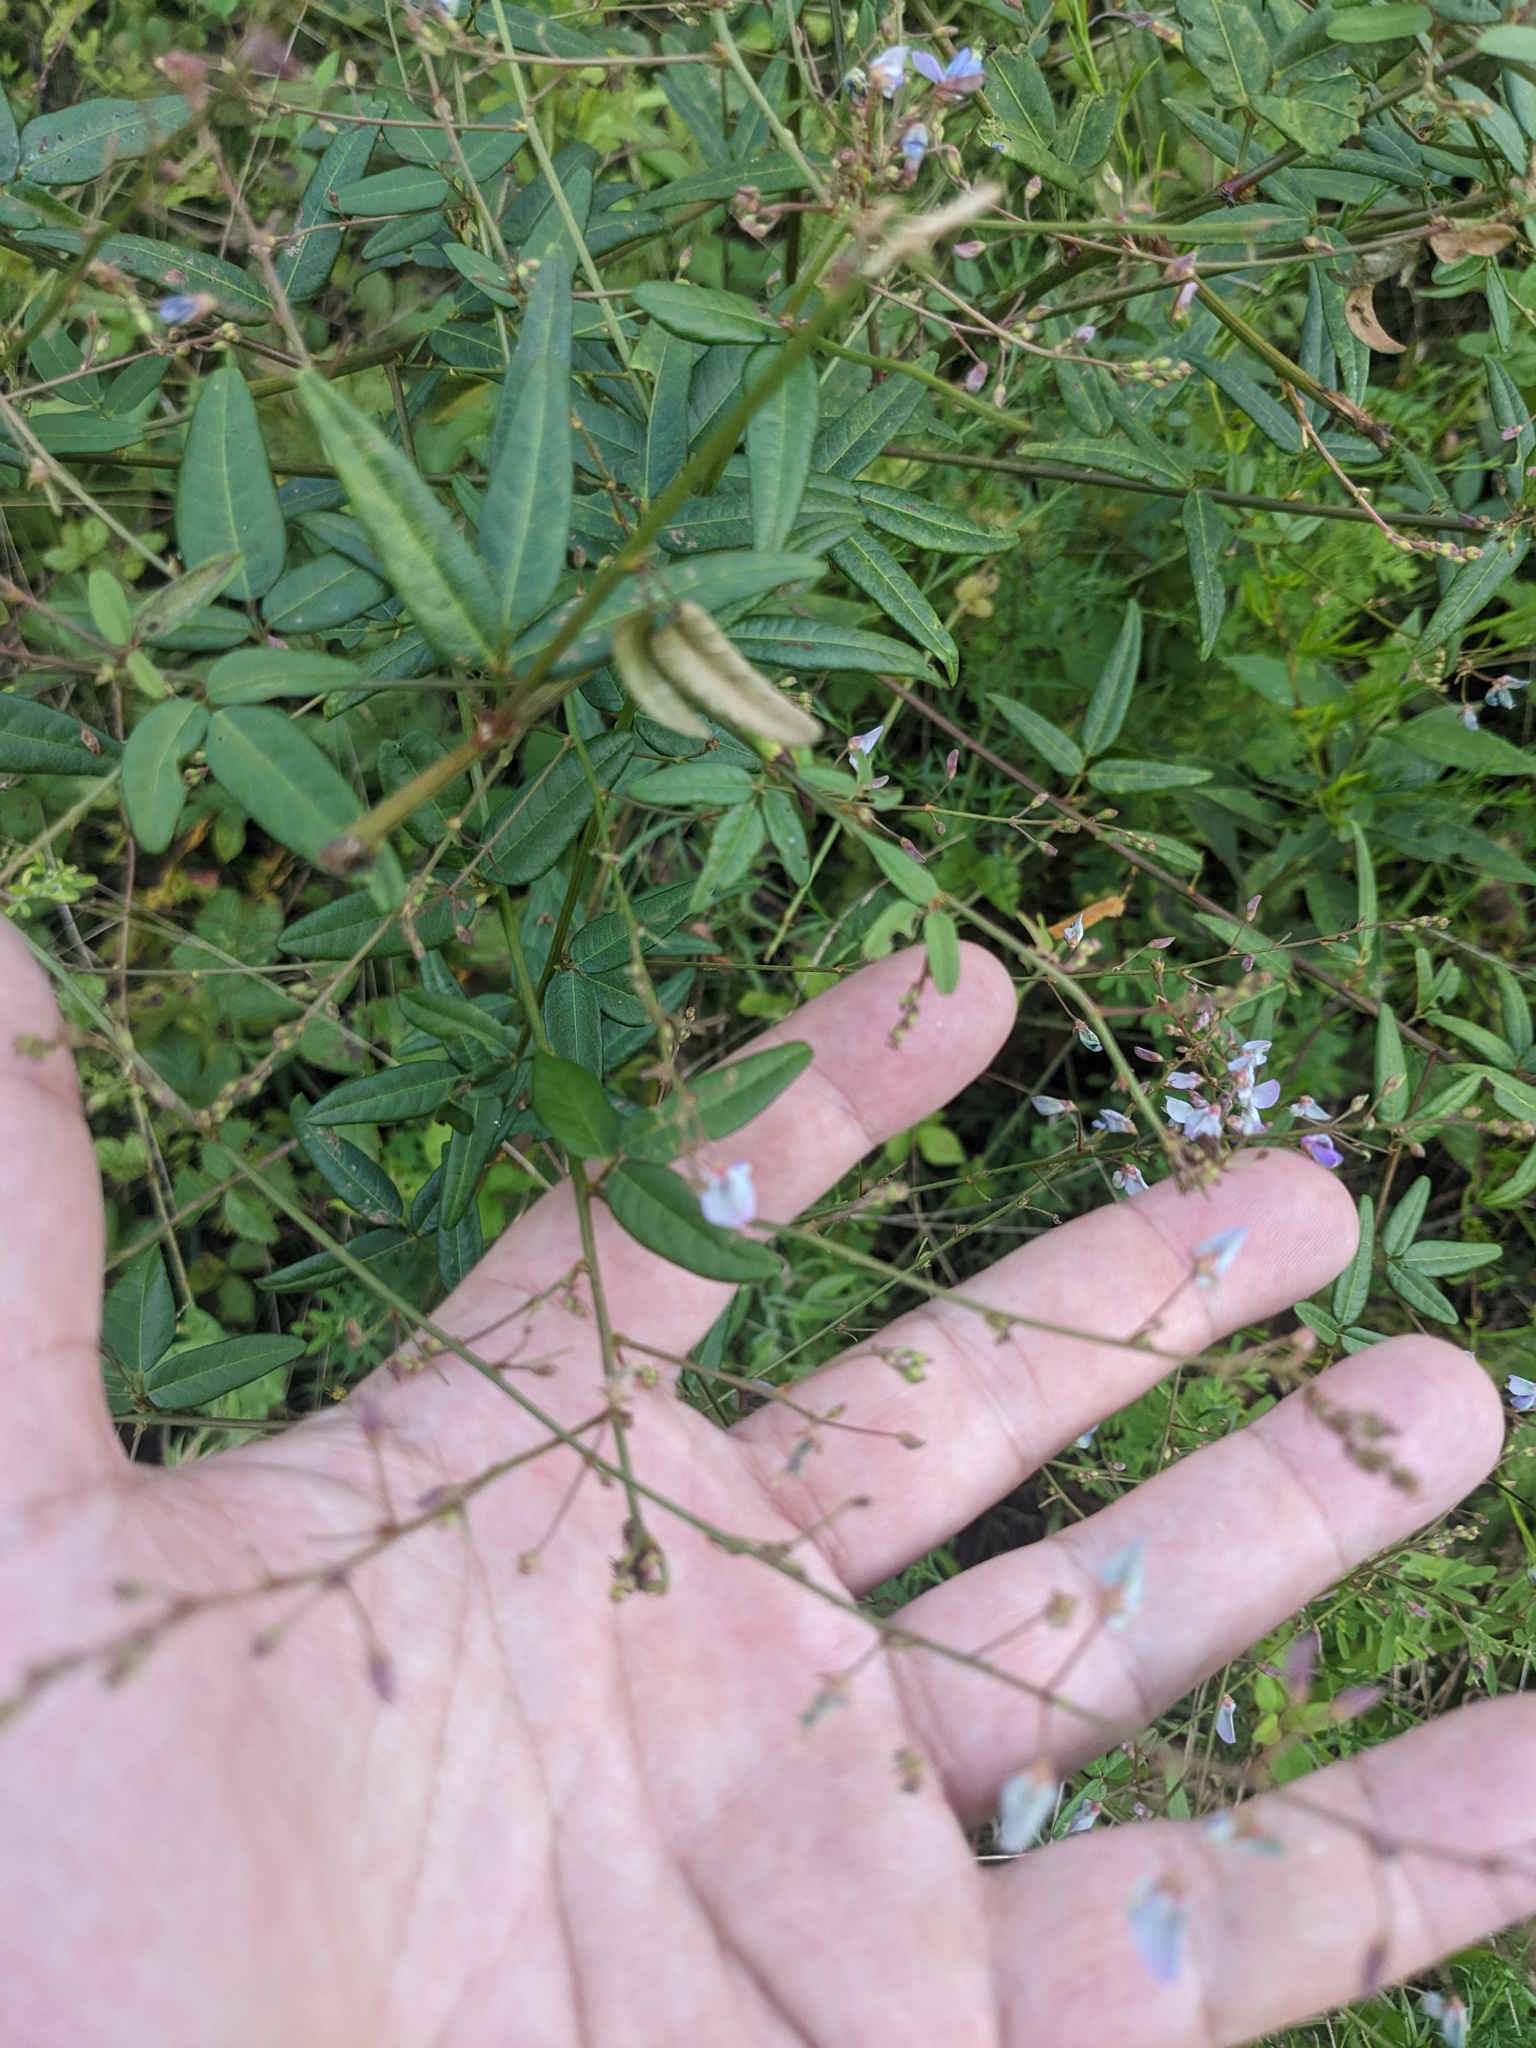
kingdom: Plantae
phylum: Tracheophyta
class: Magnoliopsida
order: Fabales
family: Fabaceae
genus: Desmodium
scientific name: Desmodium paniculatum
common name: Panicled tick-clover
